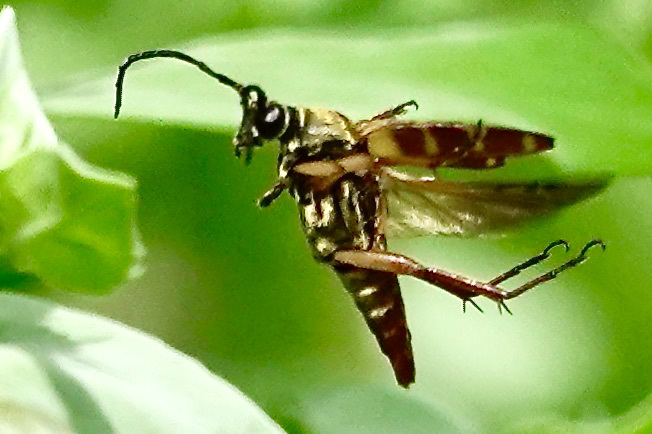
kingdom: Animalia
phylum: Arthropoda
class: Insecta
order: Coleoptera
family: Cerambycidae
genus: Typocerus
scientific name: Typocerus velutinus
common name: Banded longhorn beetle
